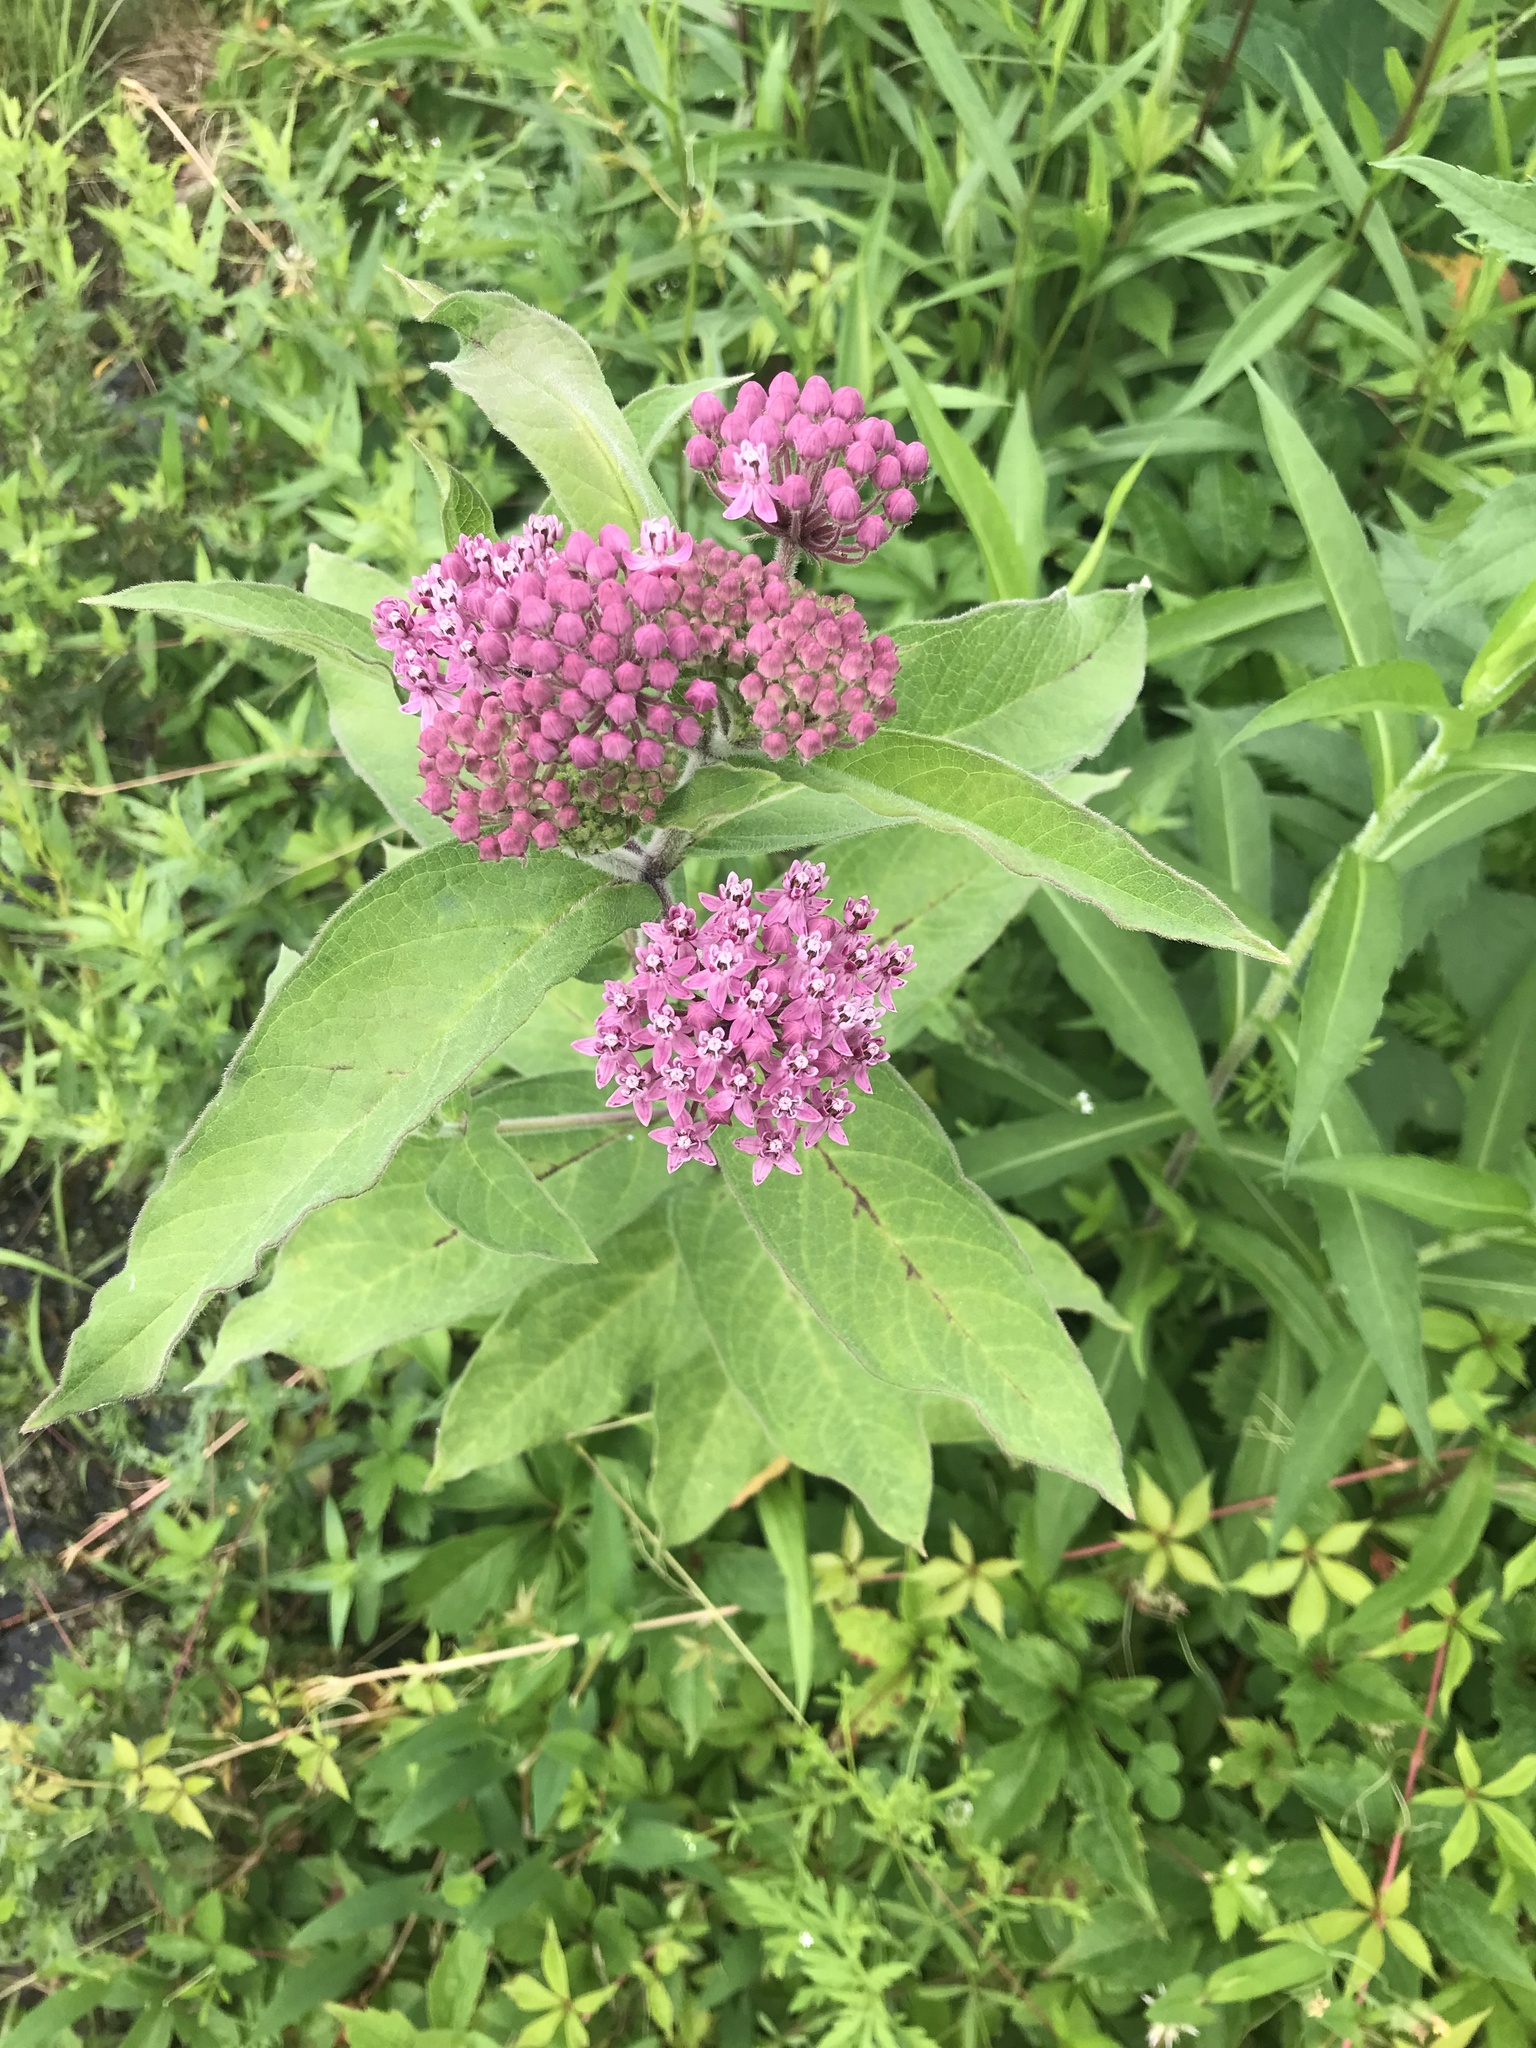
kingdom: Plantae
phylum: Tracheophyta
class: Magnoliopsida
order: Gentianales
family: Apocynaceae
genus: Asclepias
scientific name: Asclepias incarnata
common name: Swamp milkweed
